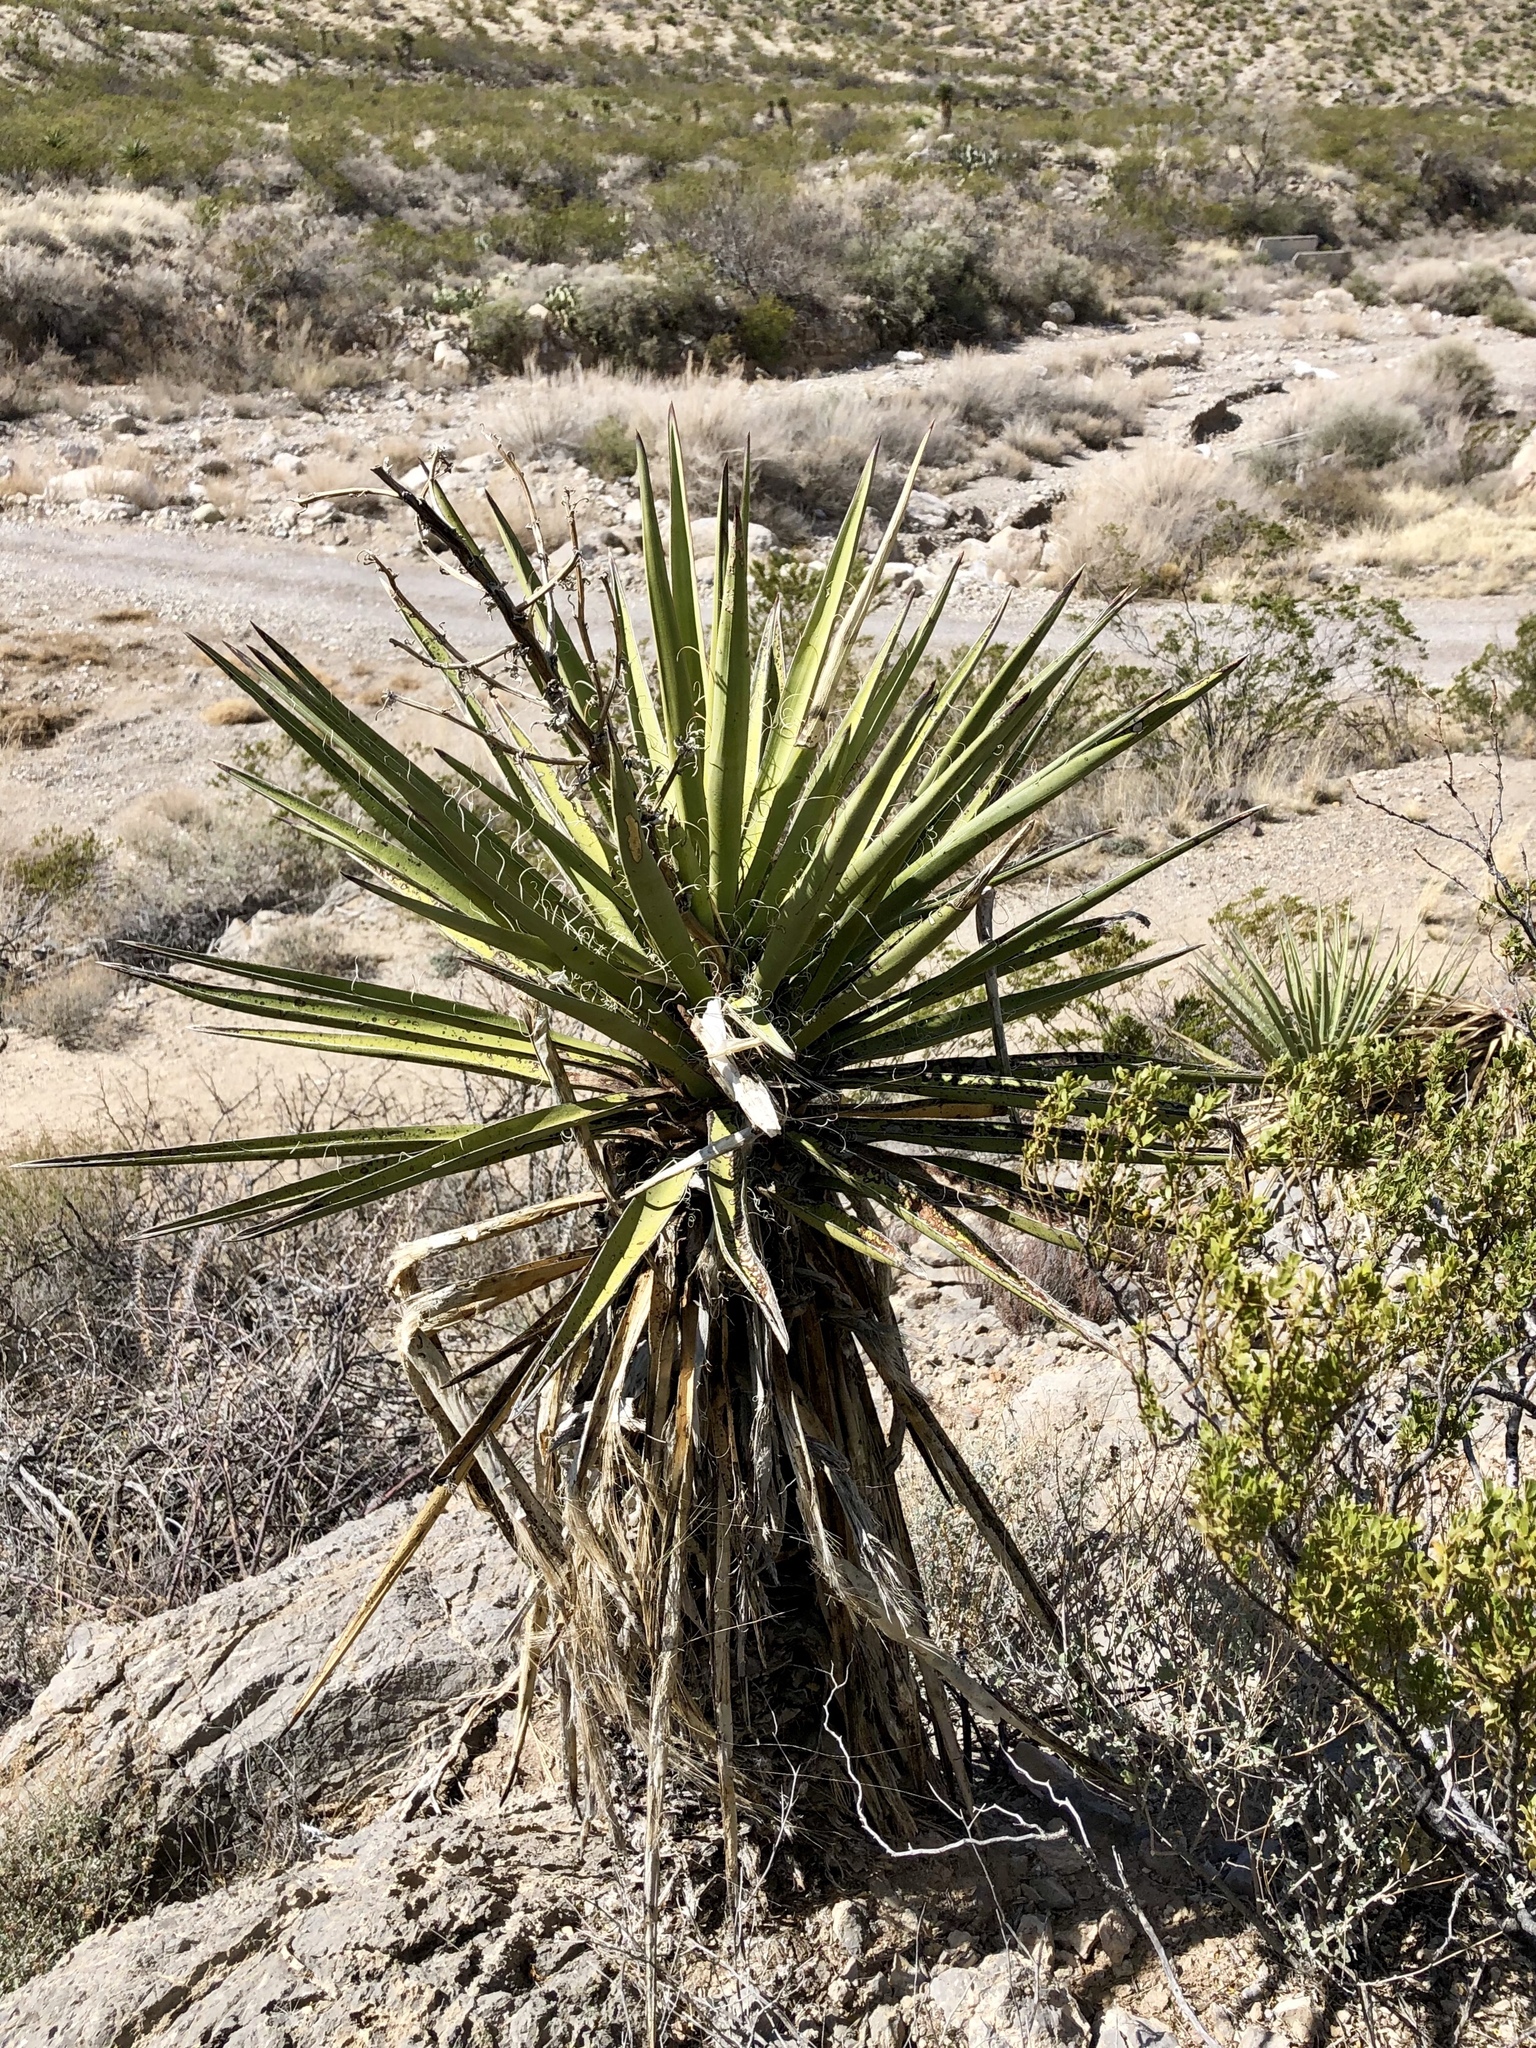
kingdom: Plantae
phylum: Tracheophyta
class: Liliopsida
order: Asparagales
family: Asparagaceae
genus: Yucca
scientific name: Yucca treculiana
